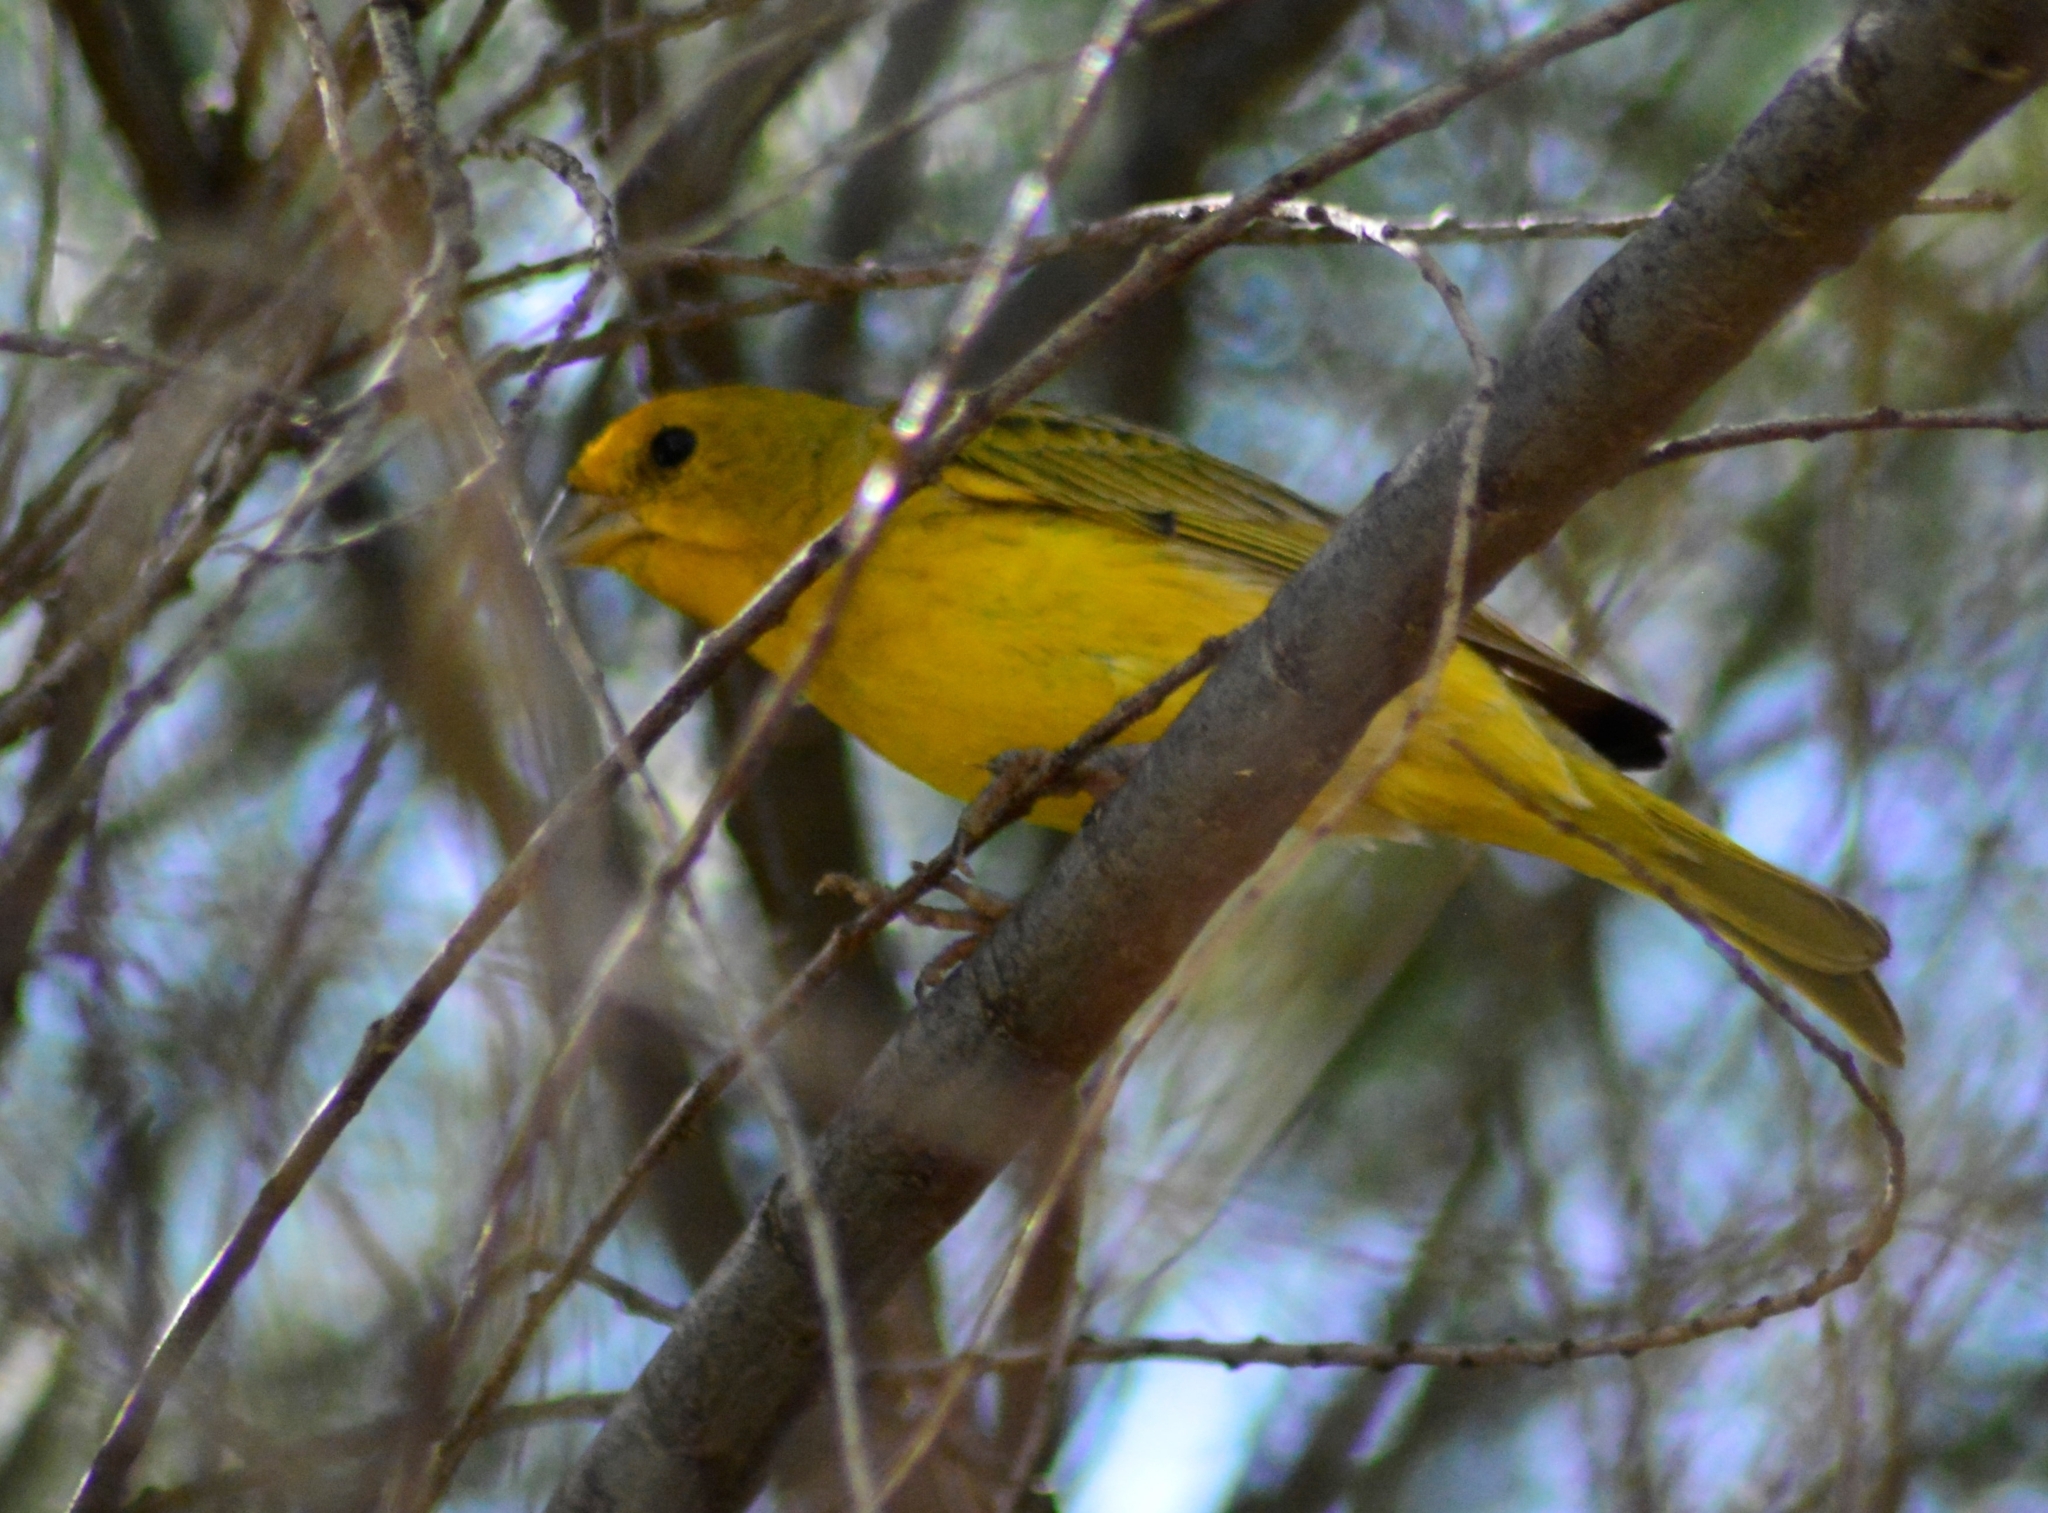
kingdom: Animalia
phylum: Chordata
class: Aves
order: Passeriformes
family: Thraupidae
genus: Sicalis
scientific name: Sicalis flaveola
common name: Saffron finch
